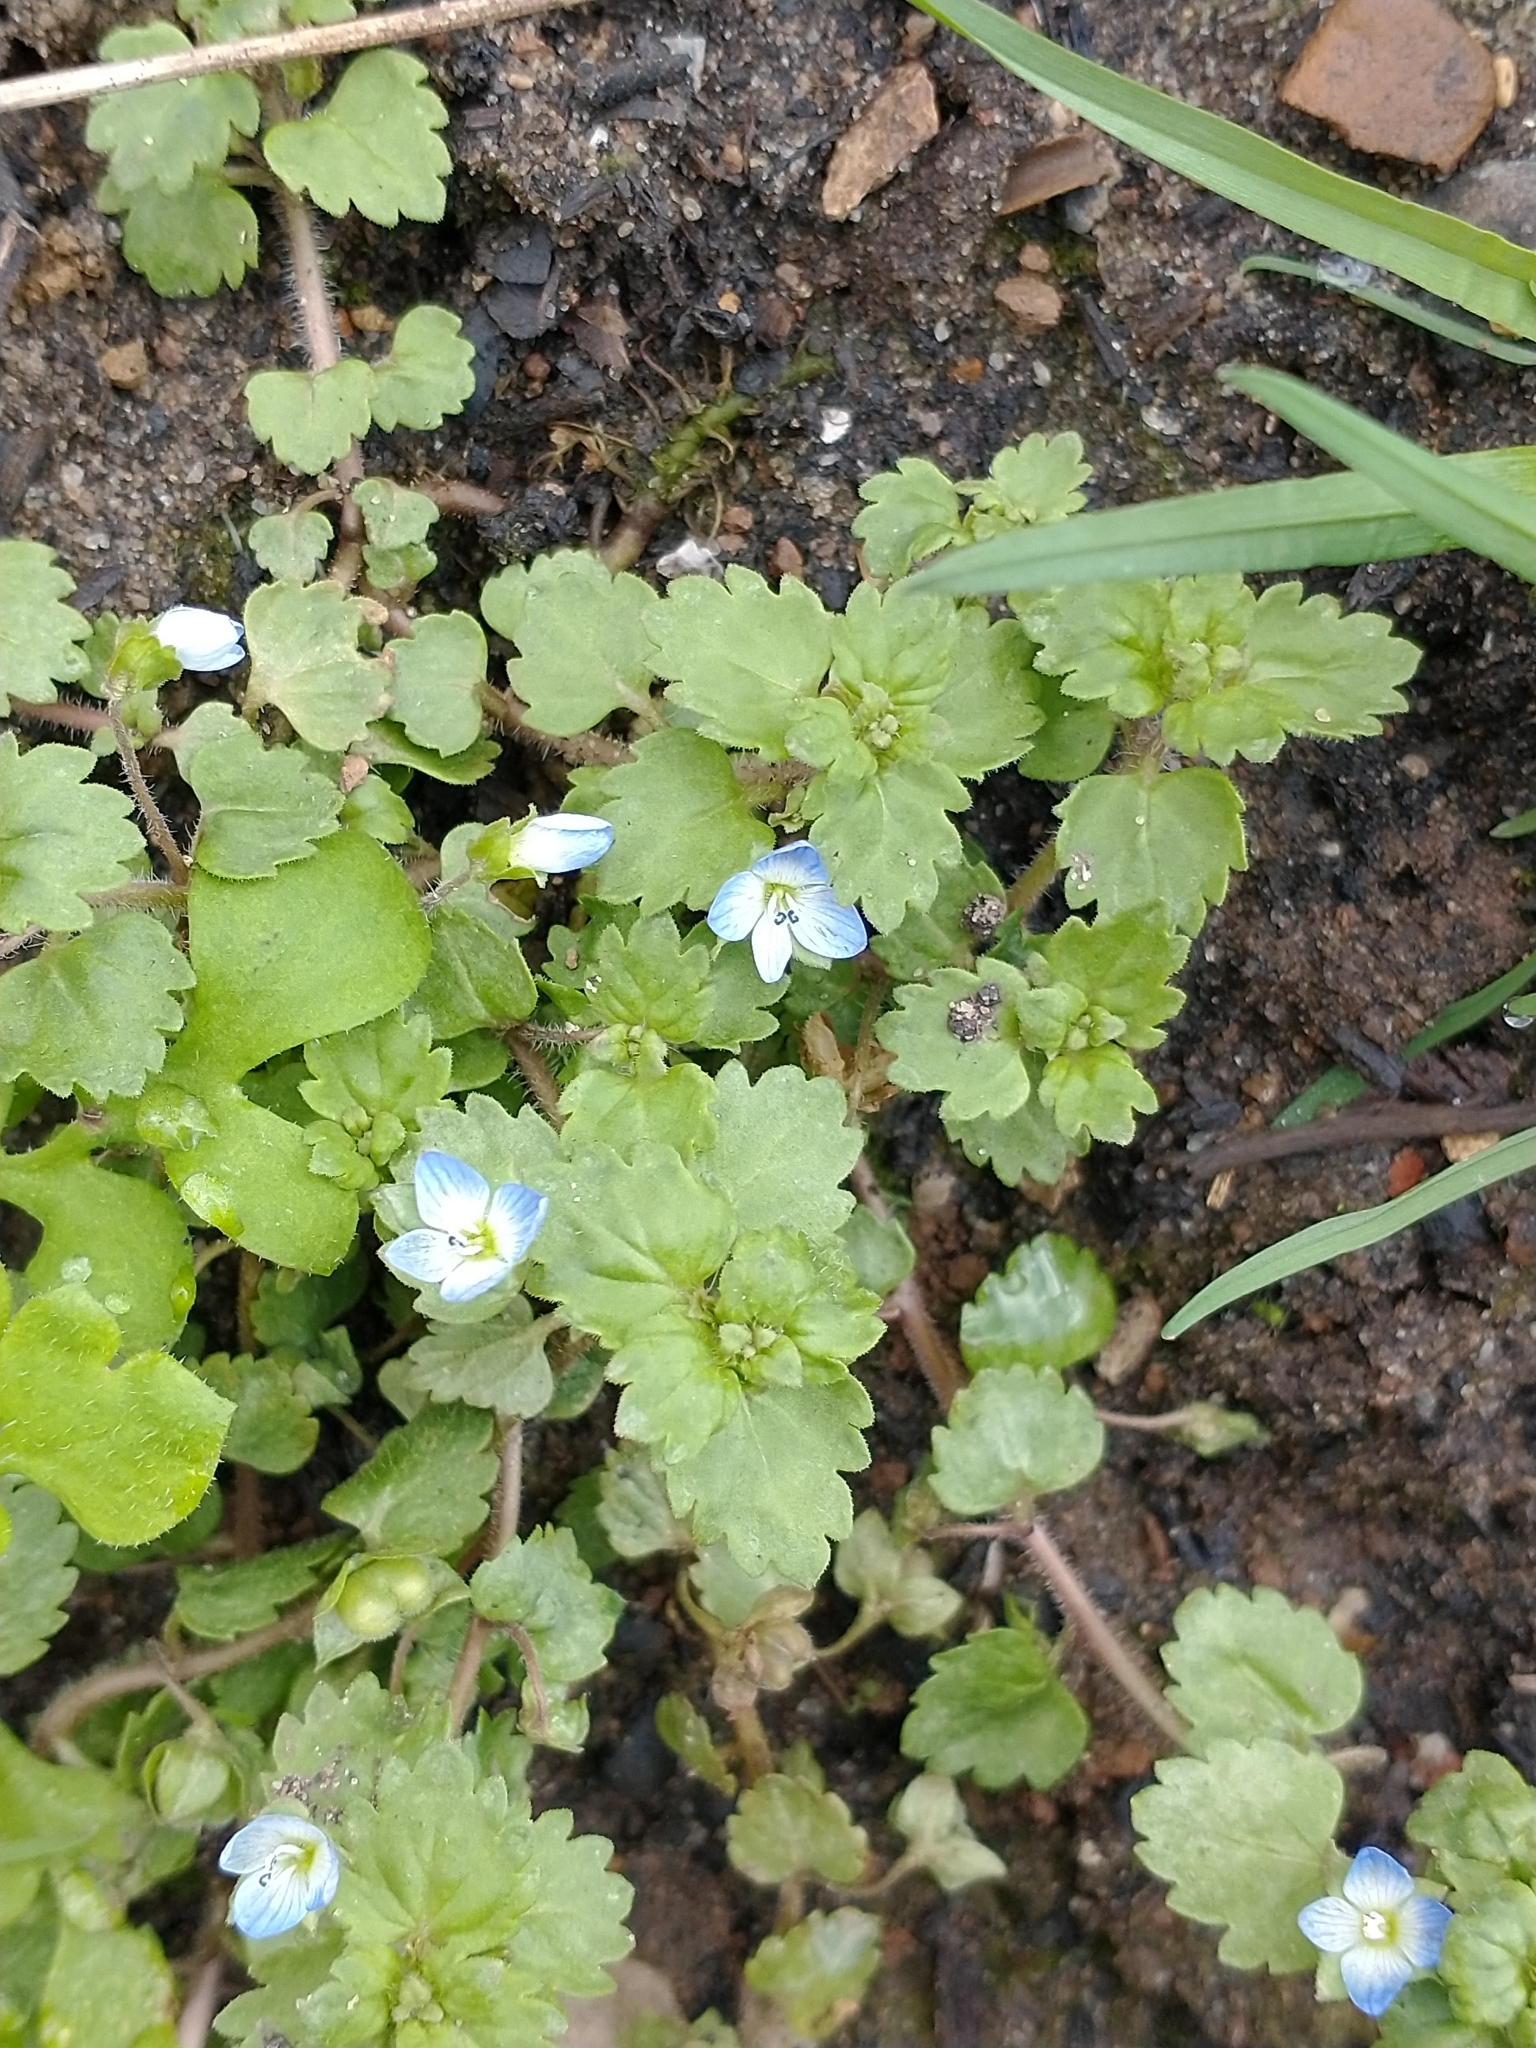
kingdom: Plantae
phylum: Tracheophyta
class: Magnoliopsida
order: Lamiales
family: Plantaginaceae
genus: Veronica
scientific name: Veronica polita
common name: Grey field-speedwell
